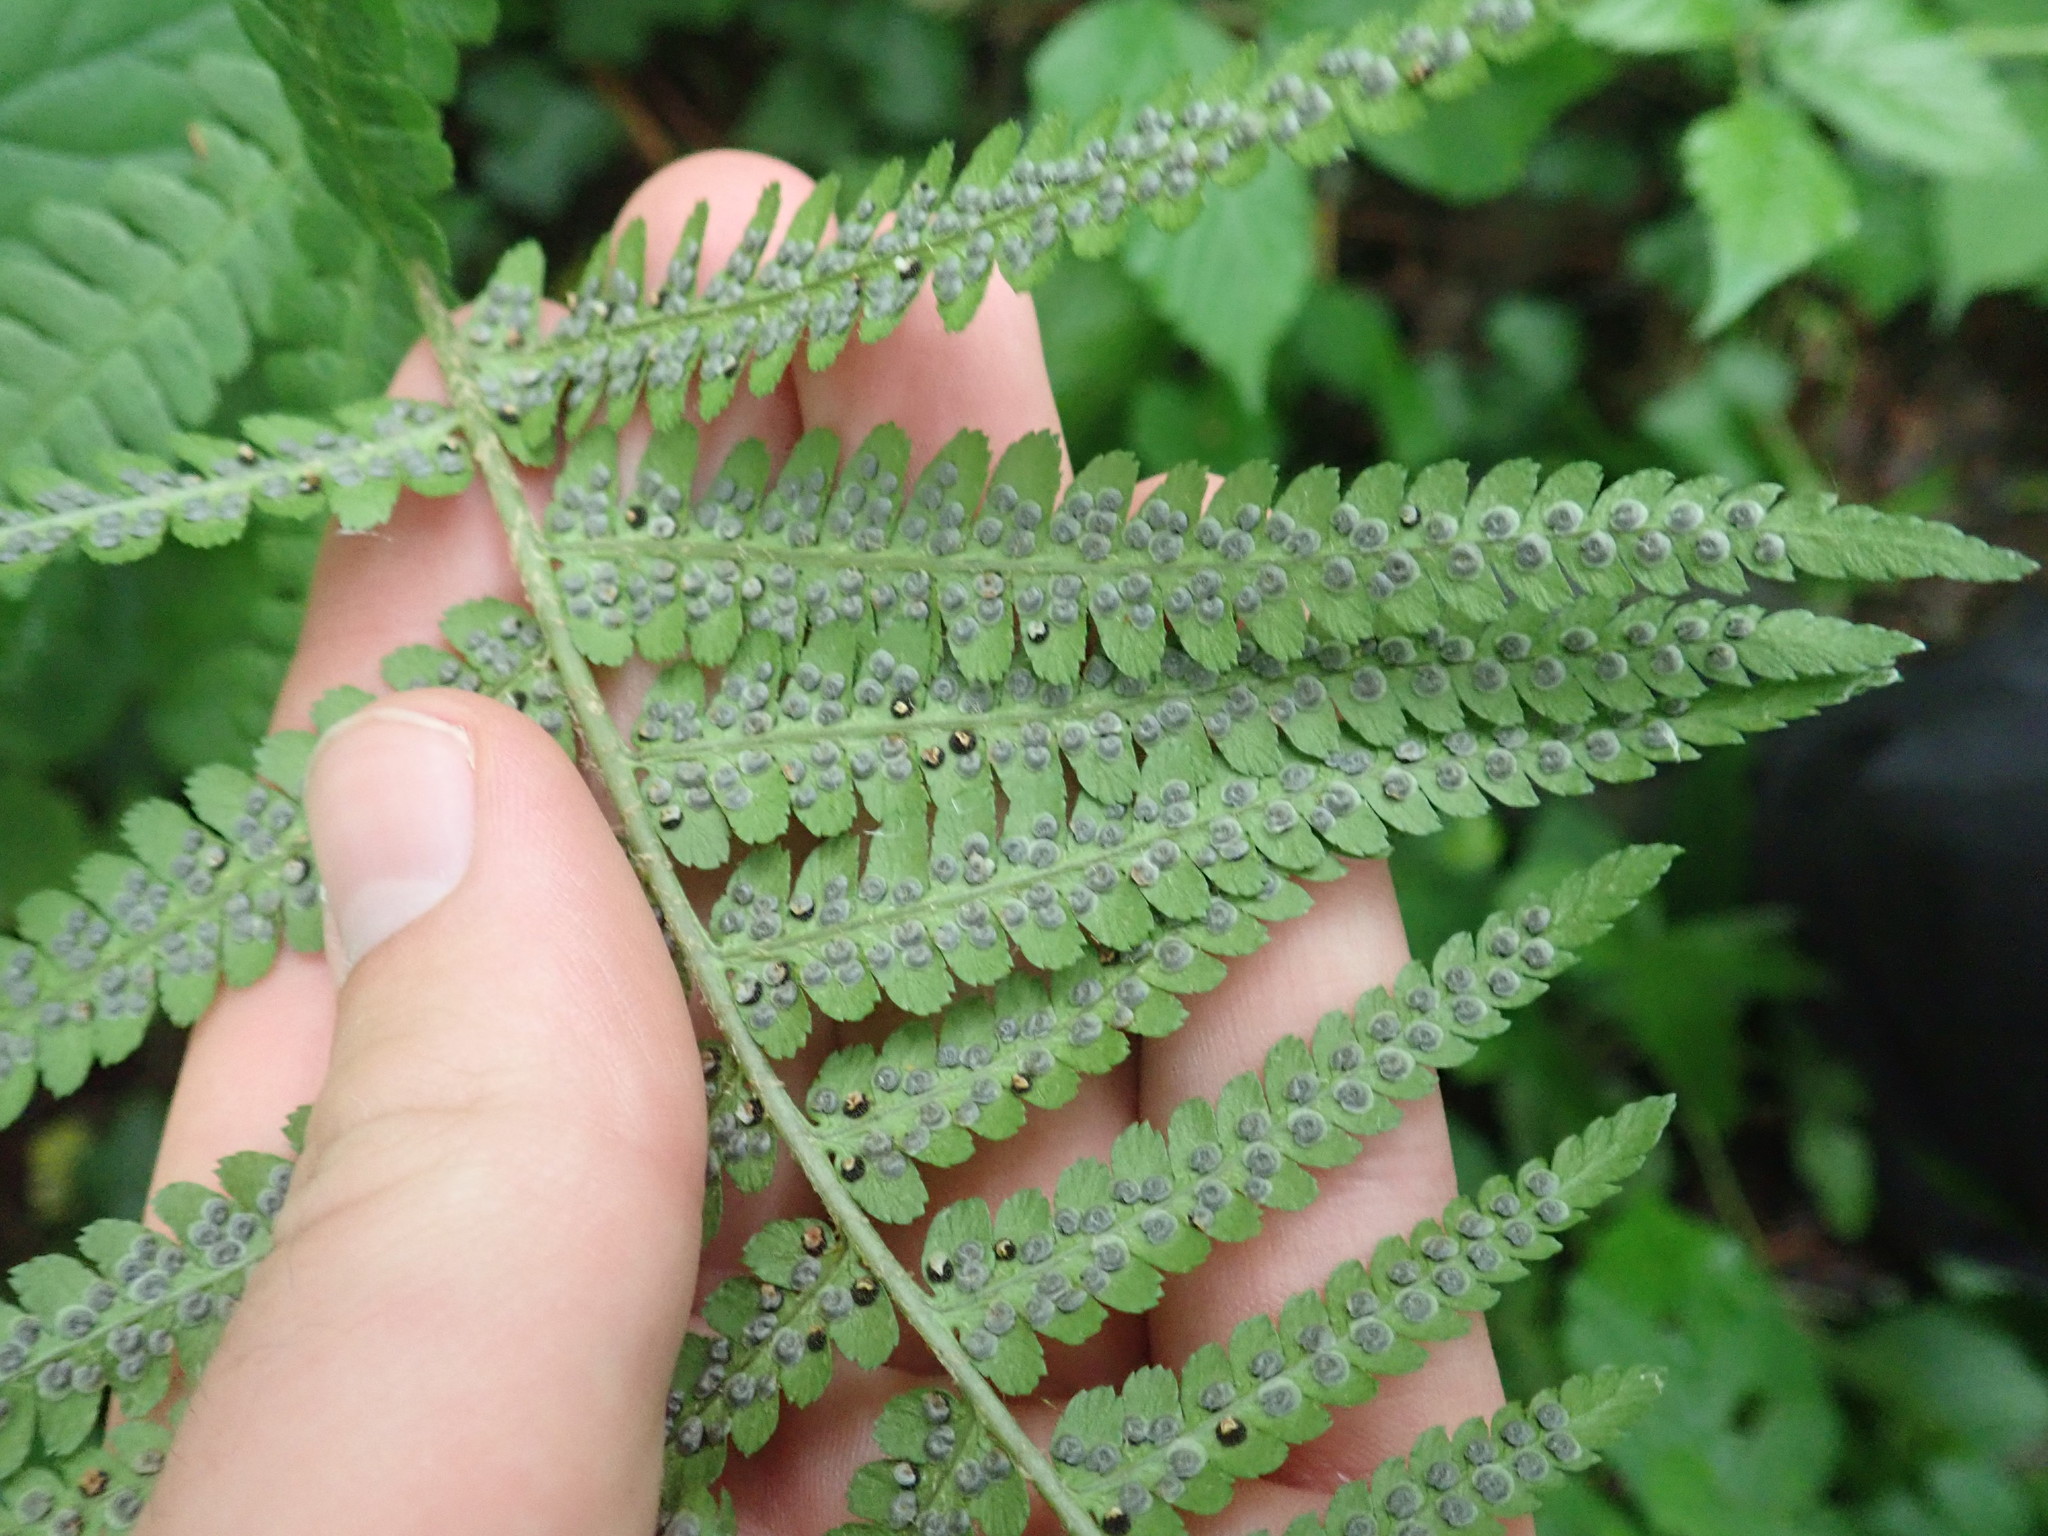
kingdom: Plantae
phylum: Tracheophyta
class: Polypodiopsida
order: Polypodiales
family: Dryopteridaceae
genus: Dryopteris
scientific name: Dryopteris filix-mas
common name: Male fern
